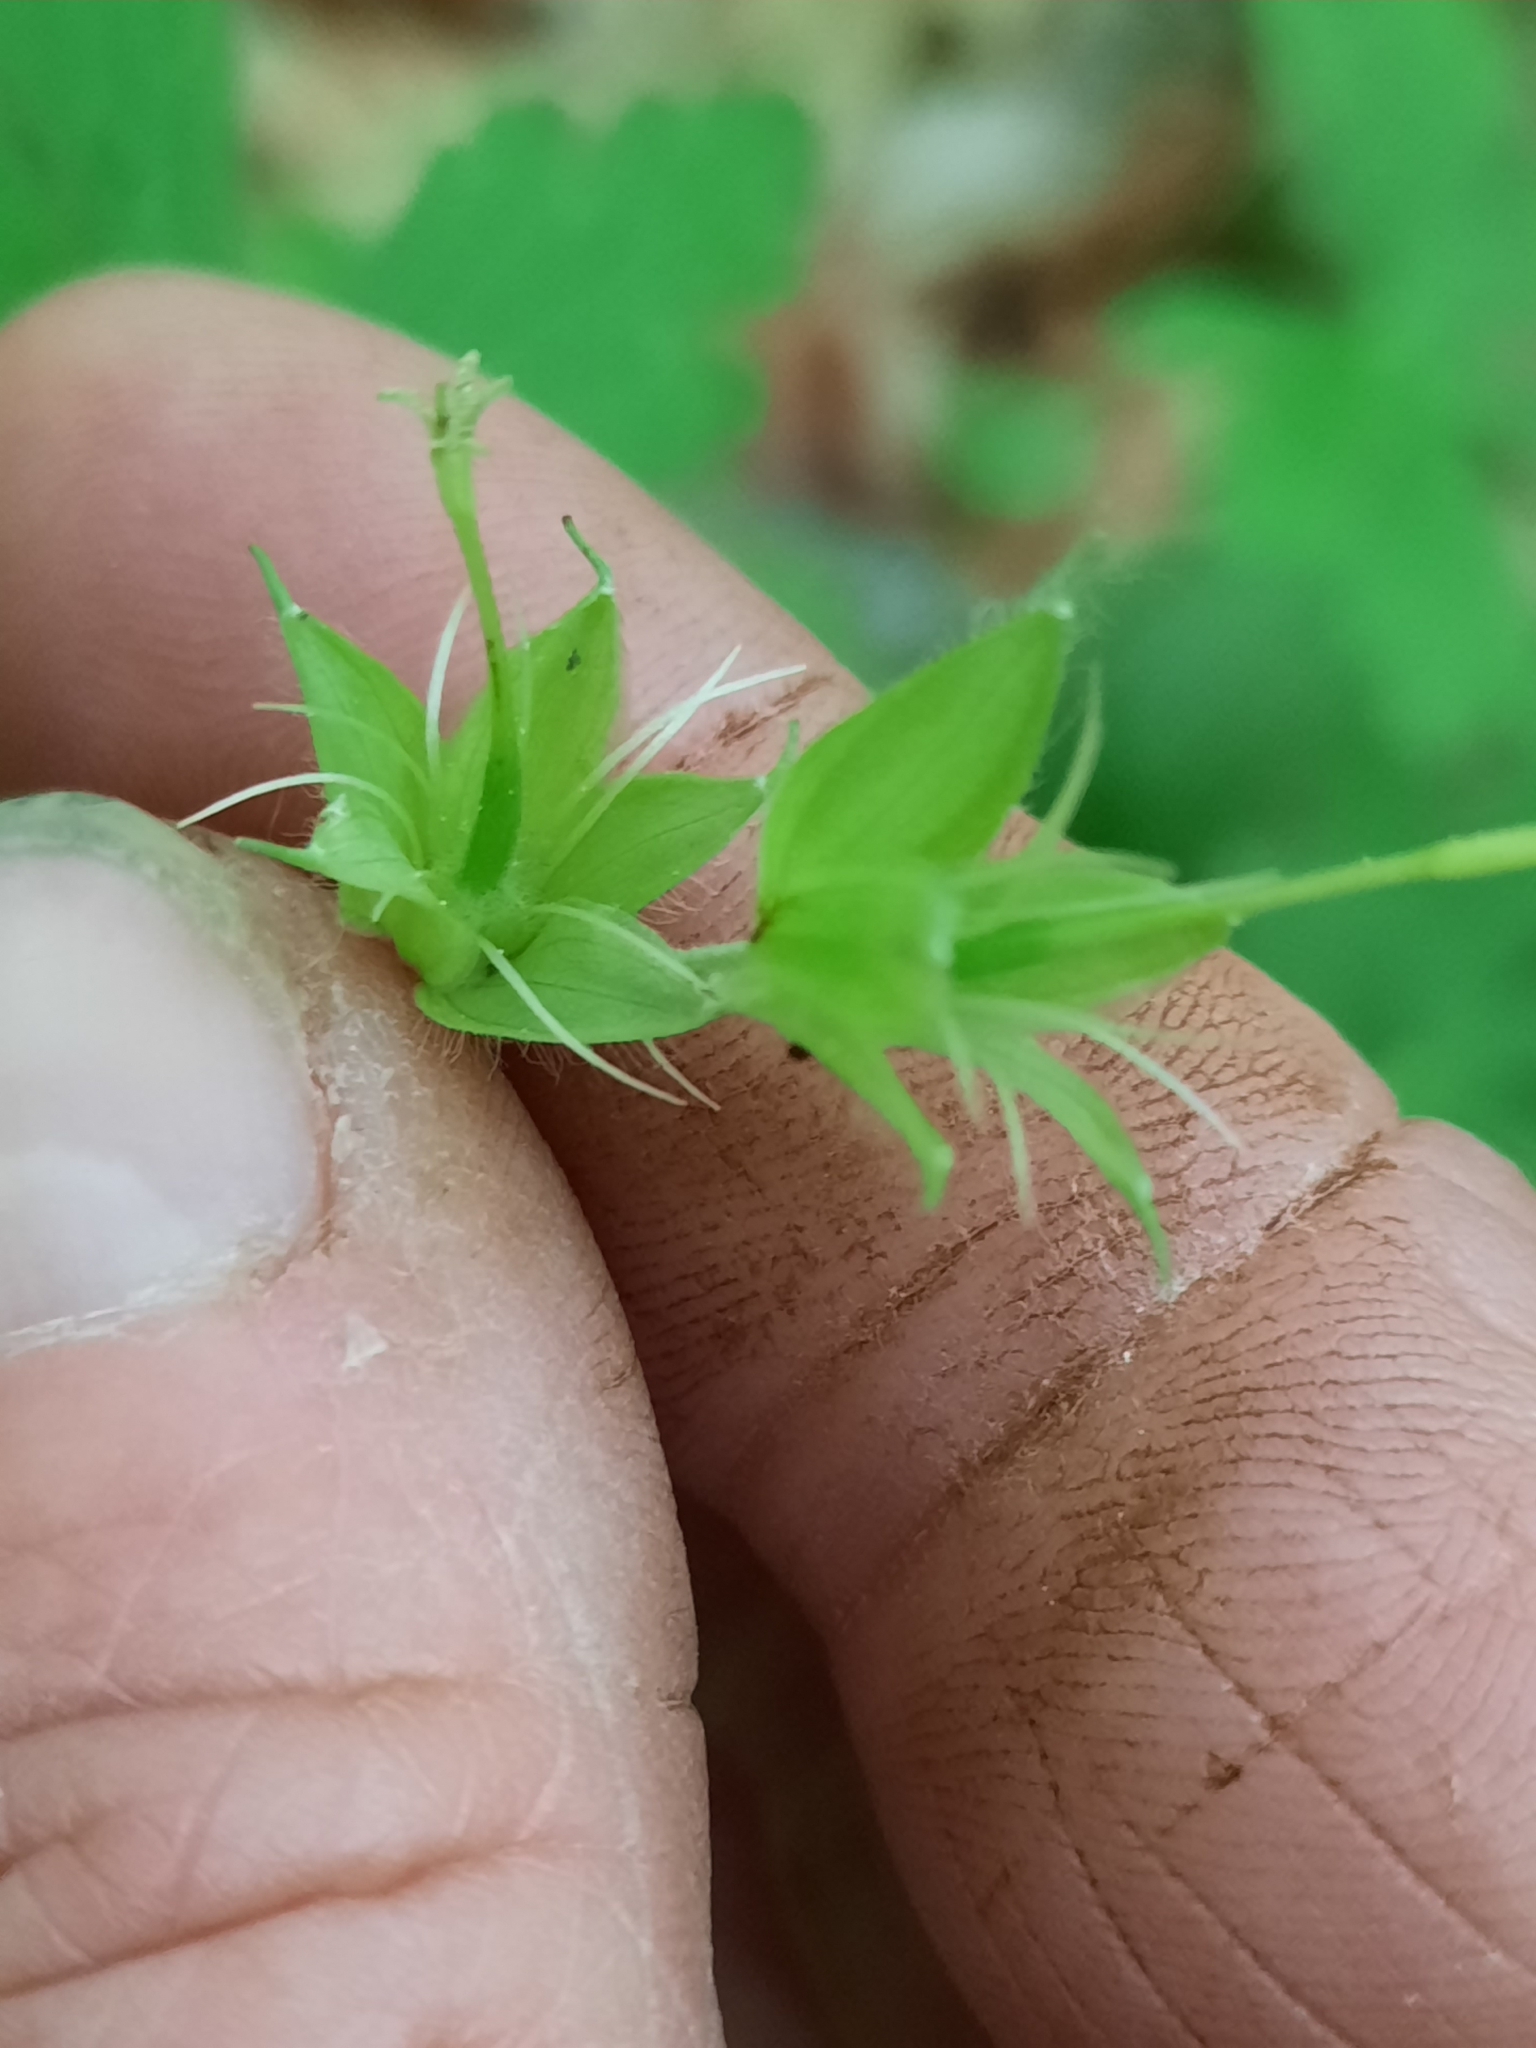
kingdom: Plantae
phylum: Tracheophyta
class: Magnoliopsida
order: Geraniales
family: Geraniaceae
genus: Geranium
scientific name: Geranium maculatum
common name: Spotted geranium
